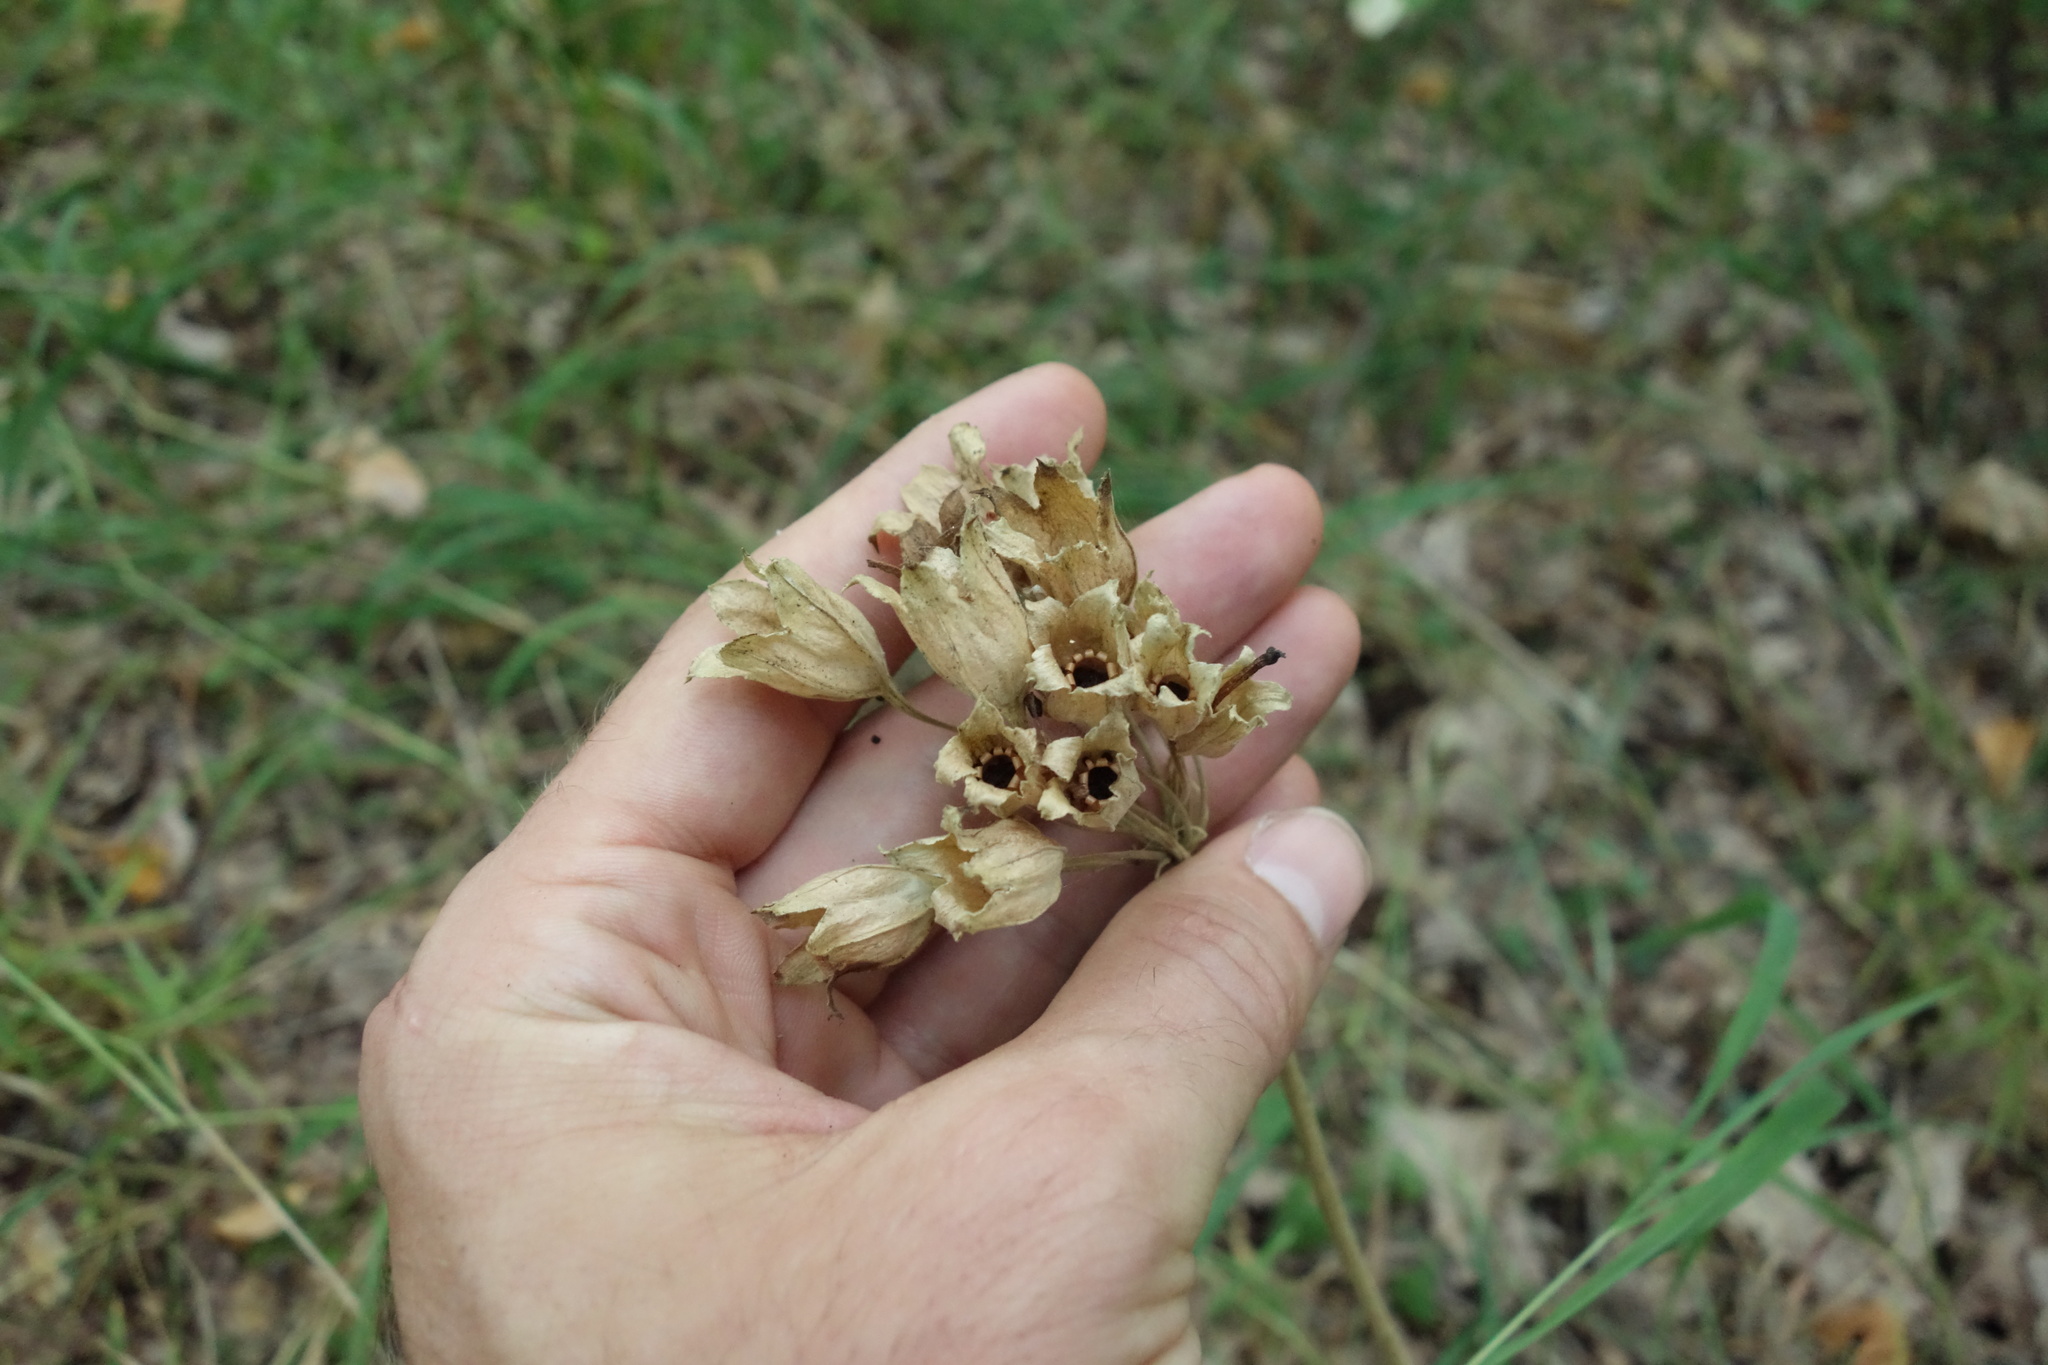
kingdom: Plantae
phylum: Tracheophyta
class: Magnoliopsida
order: Ericales
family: Primulaceae
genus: Primula
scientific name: Primula veris
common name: Cowslip
